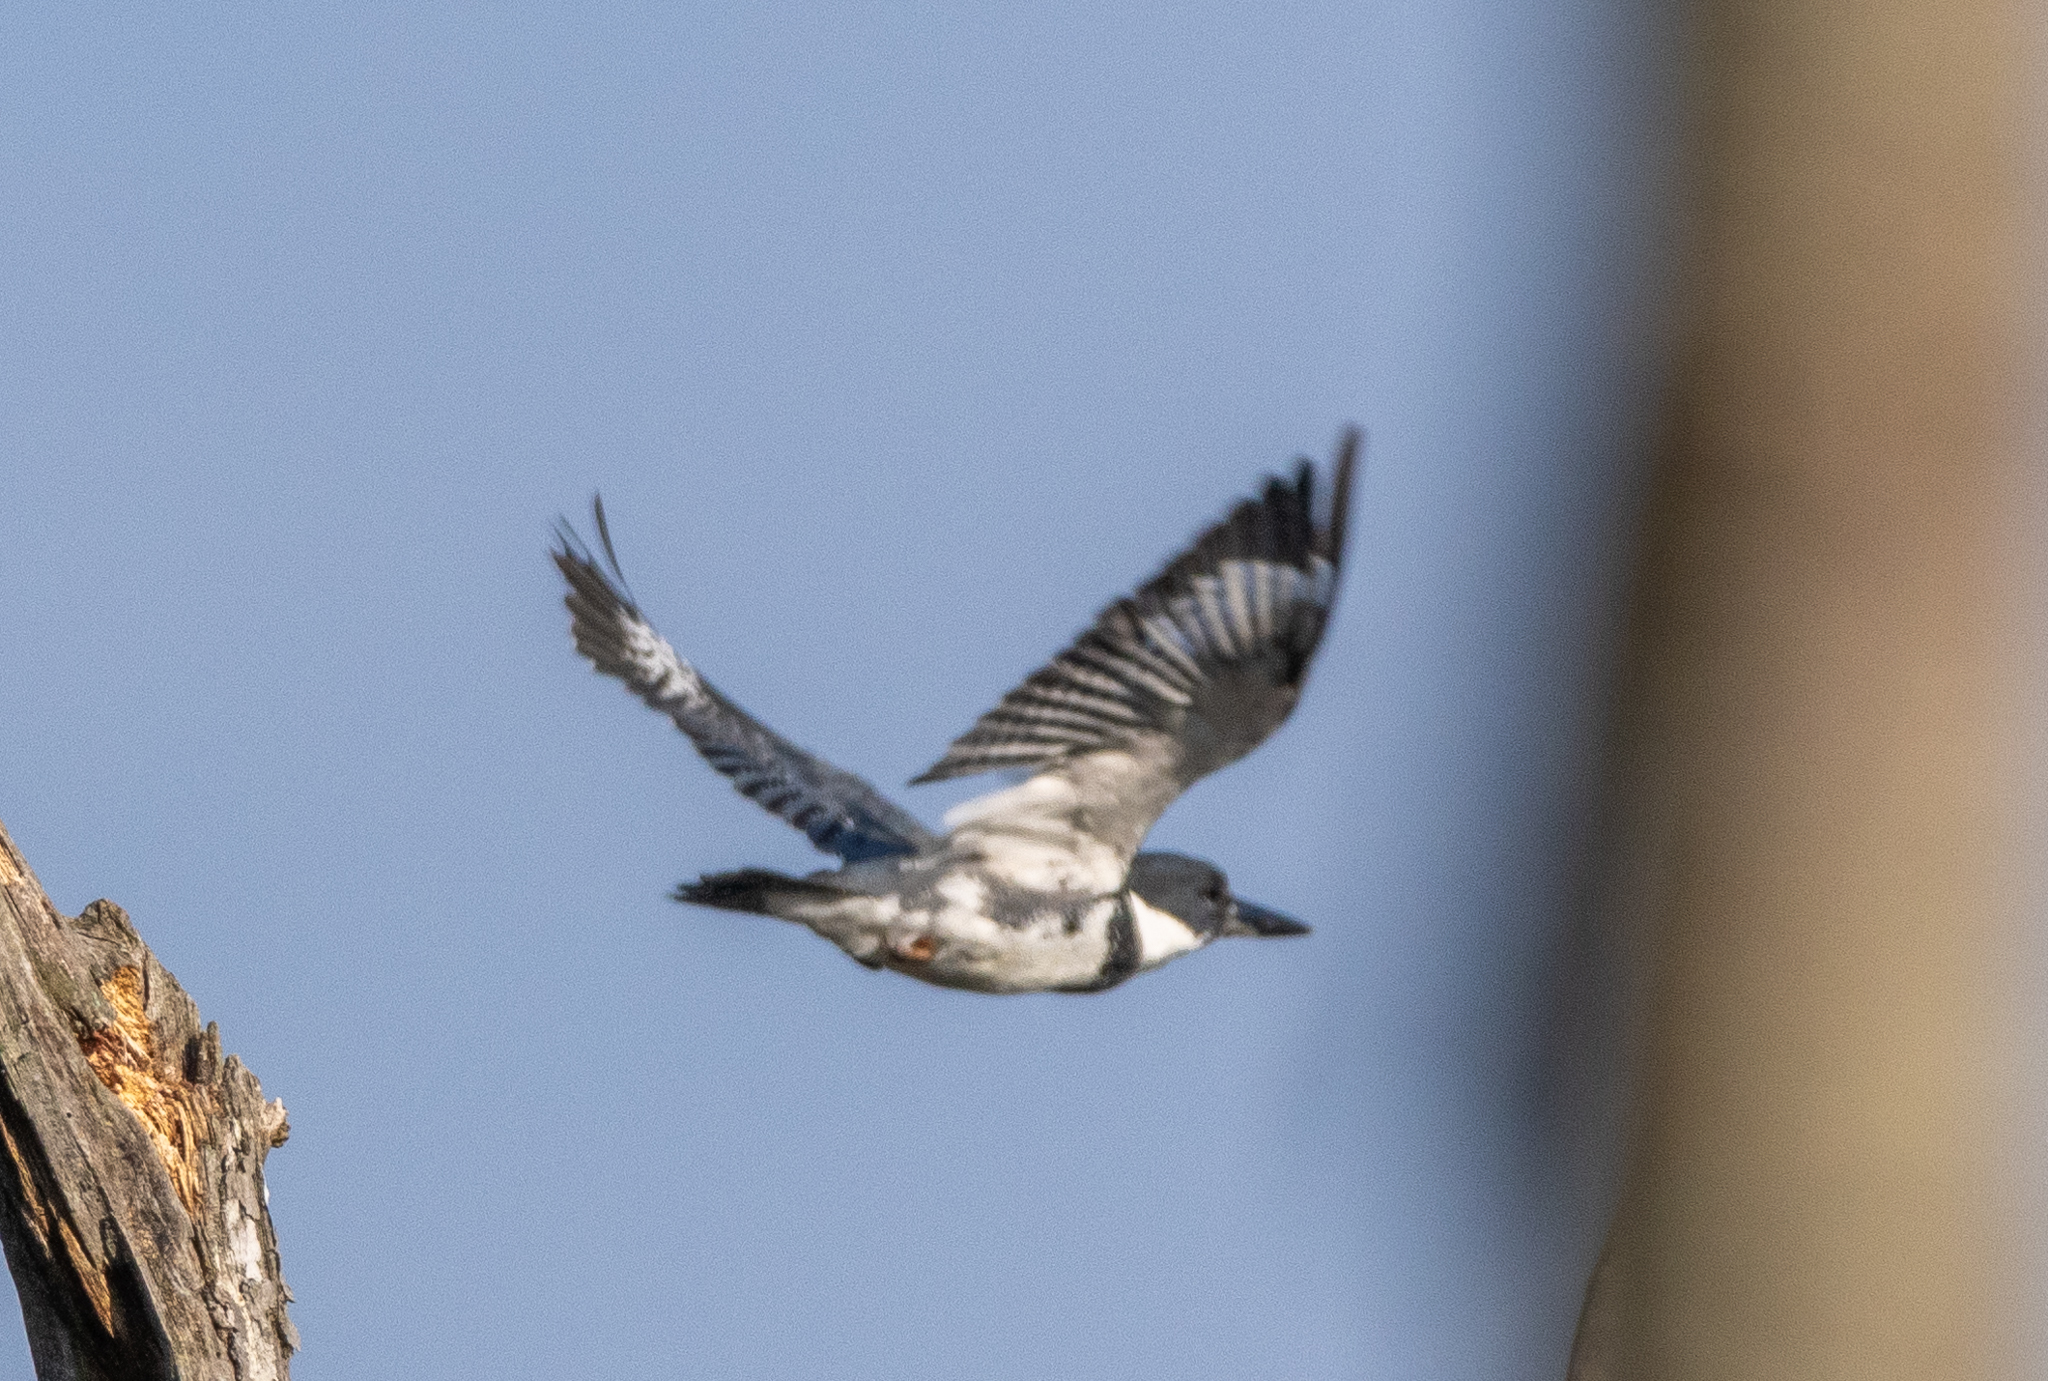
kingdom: Animalia
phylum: Chordata
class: Aves
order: Coraciiformes
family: Alcedinidae
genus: Megaceryle
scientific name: Megaceryle alcyon
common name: Belted kingfisher
